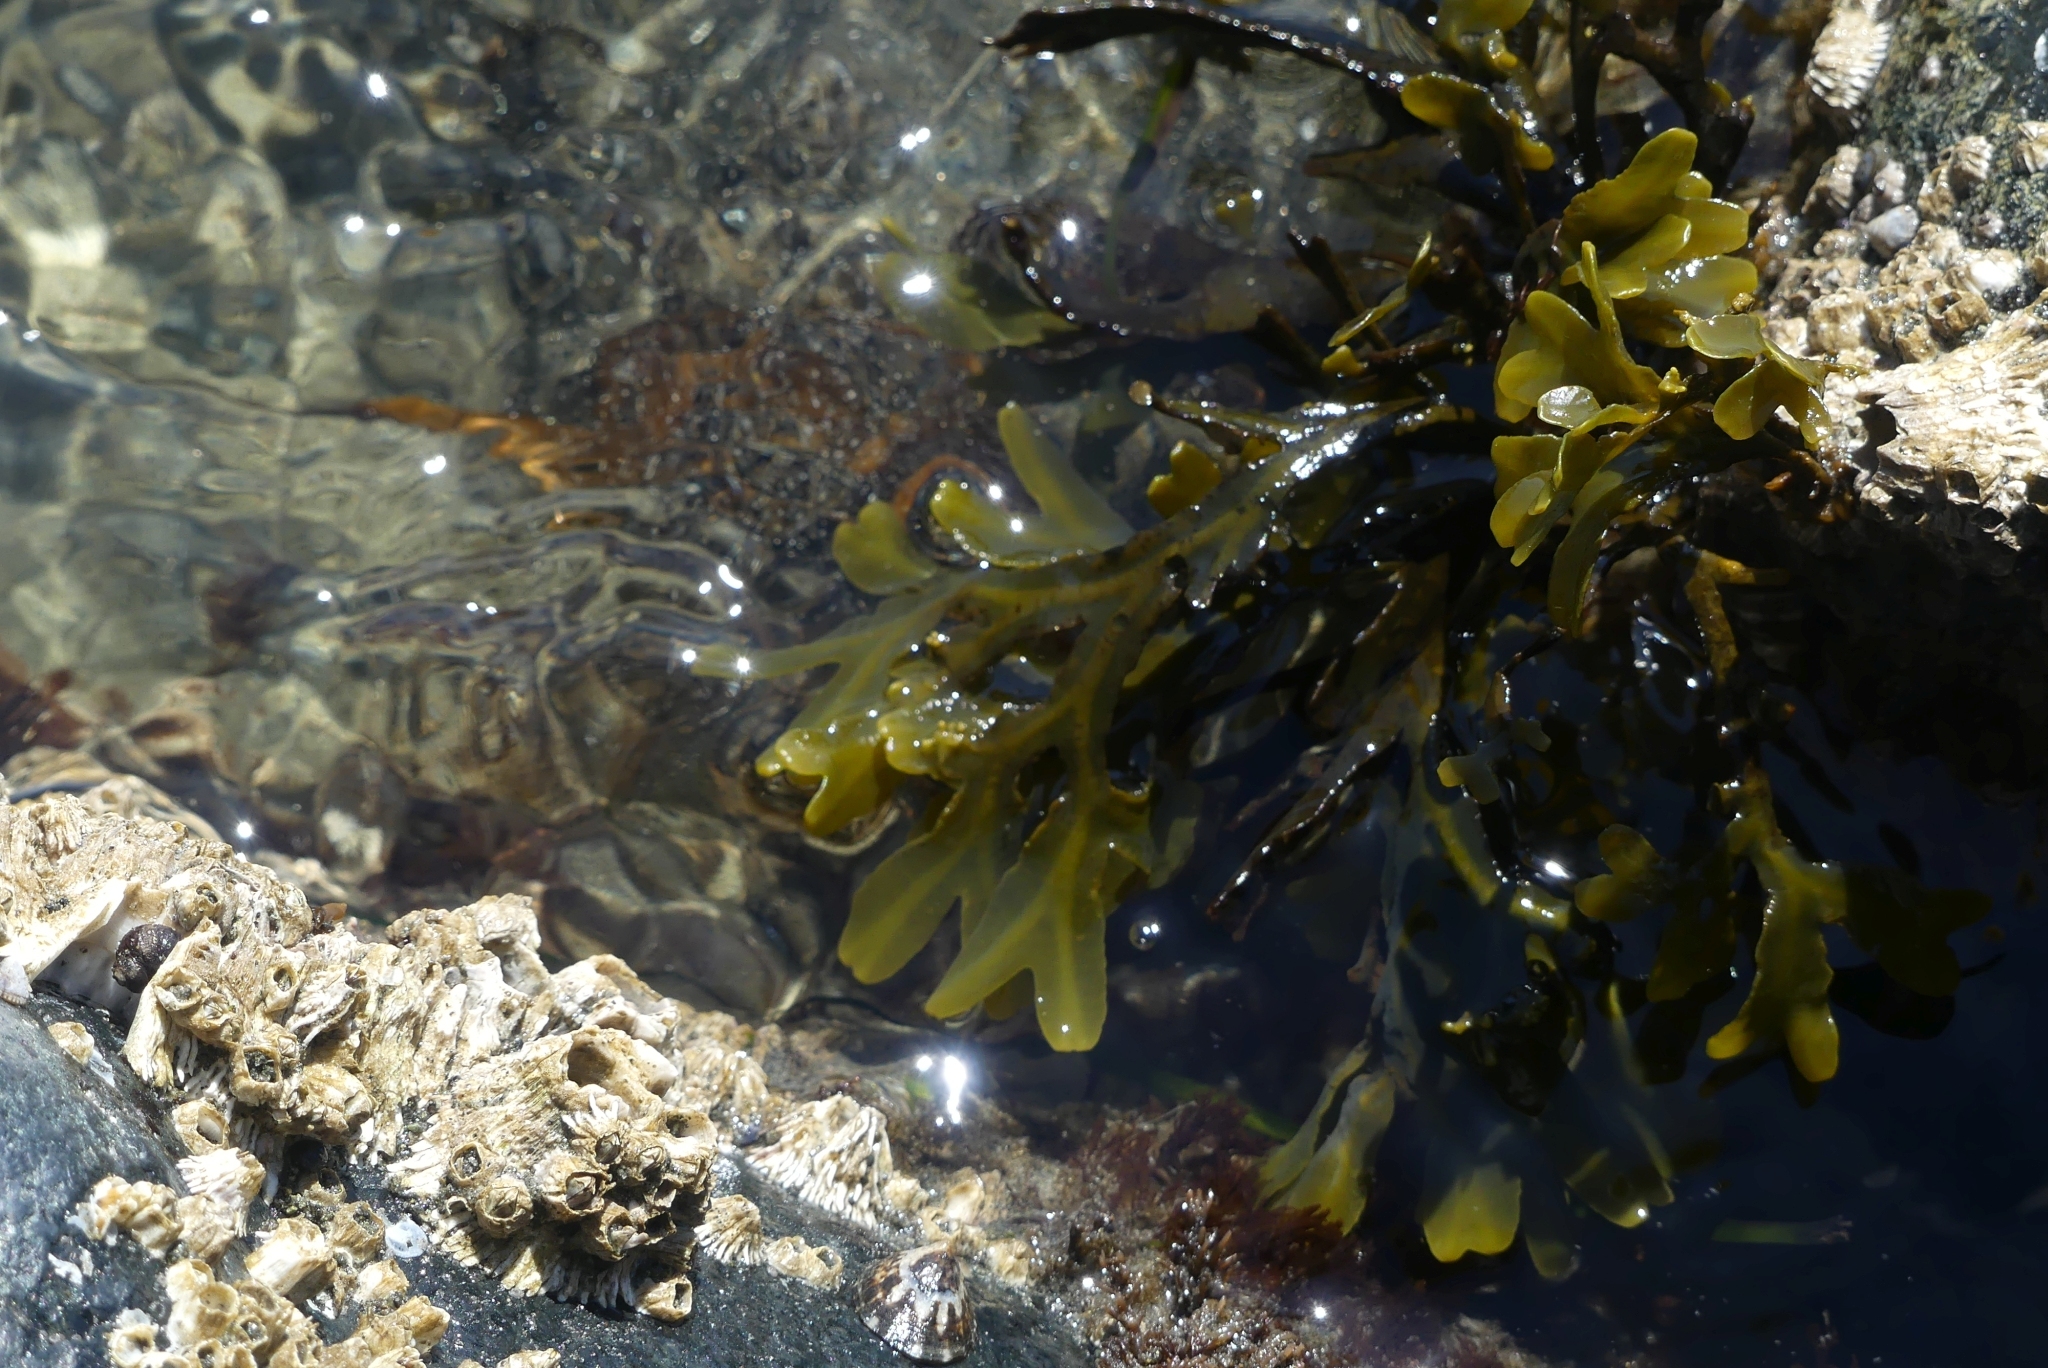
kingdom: Chromista
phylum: Ochrophyta
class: Phaeophyceae
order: Fucales
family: Fucaceae
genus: Fucus
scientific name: Fucus distichus
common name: Rockweed
